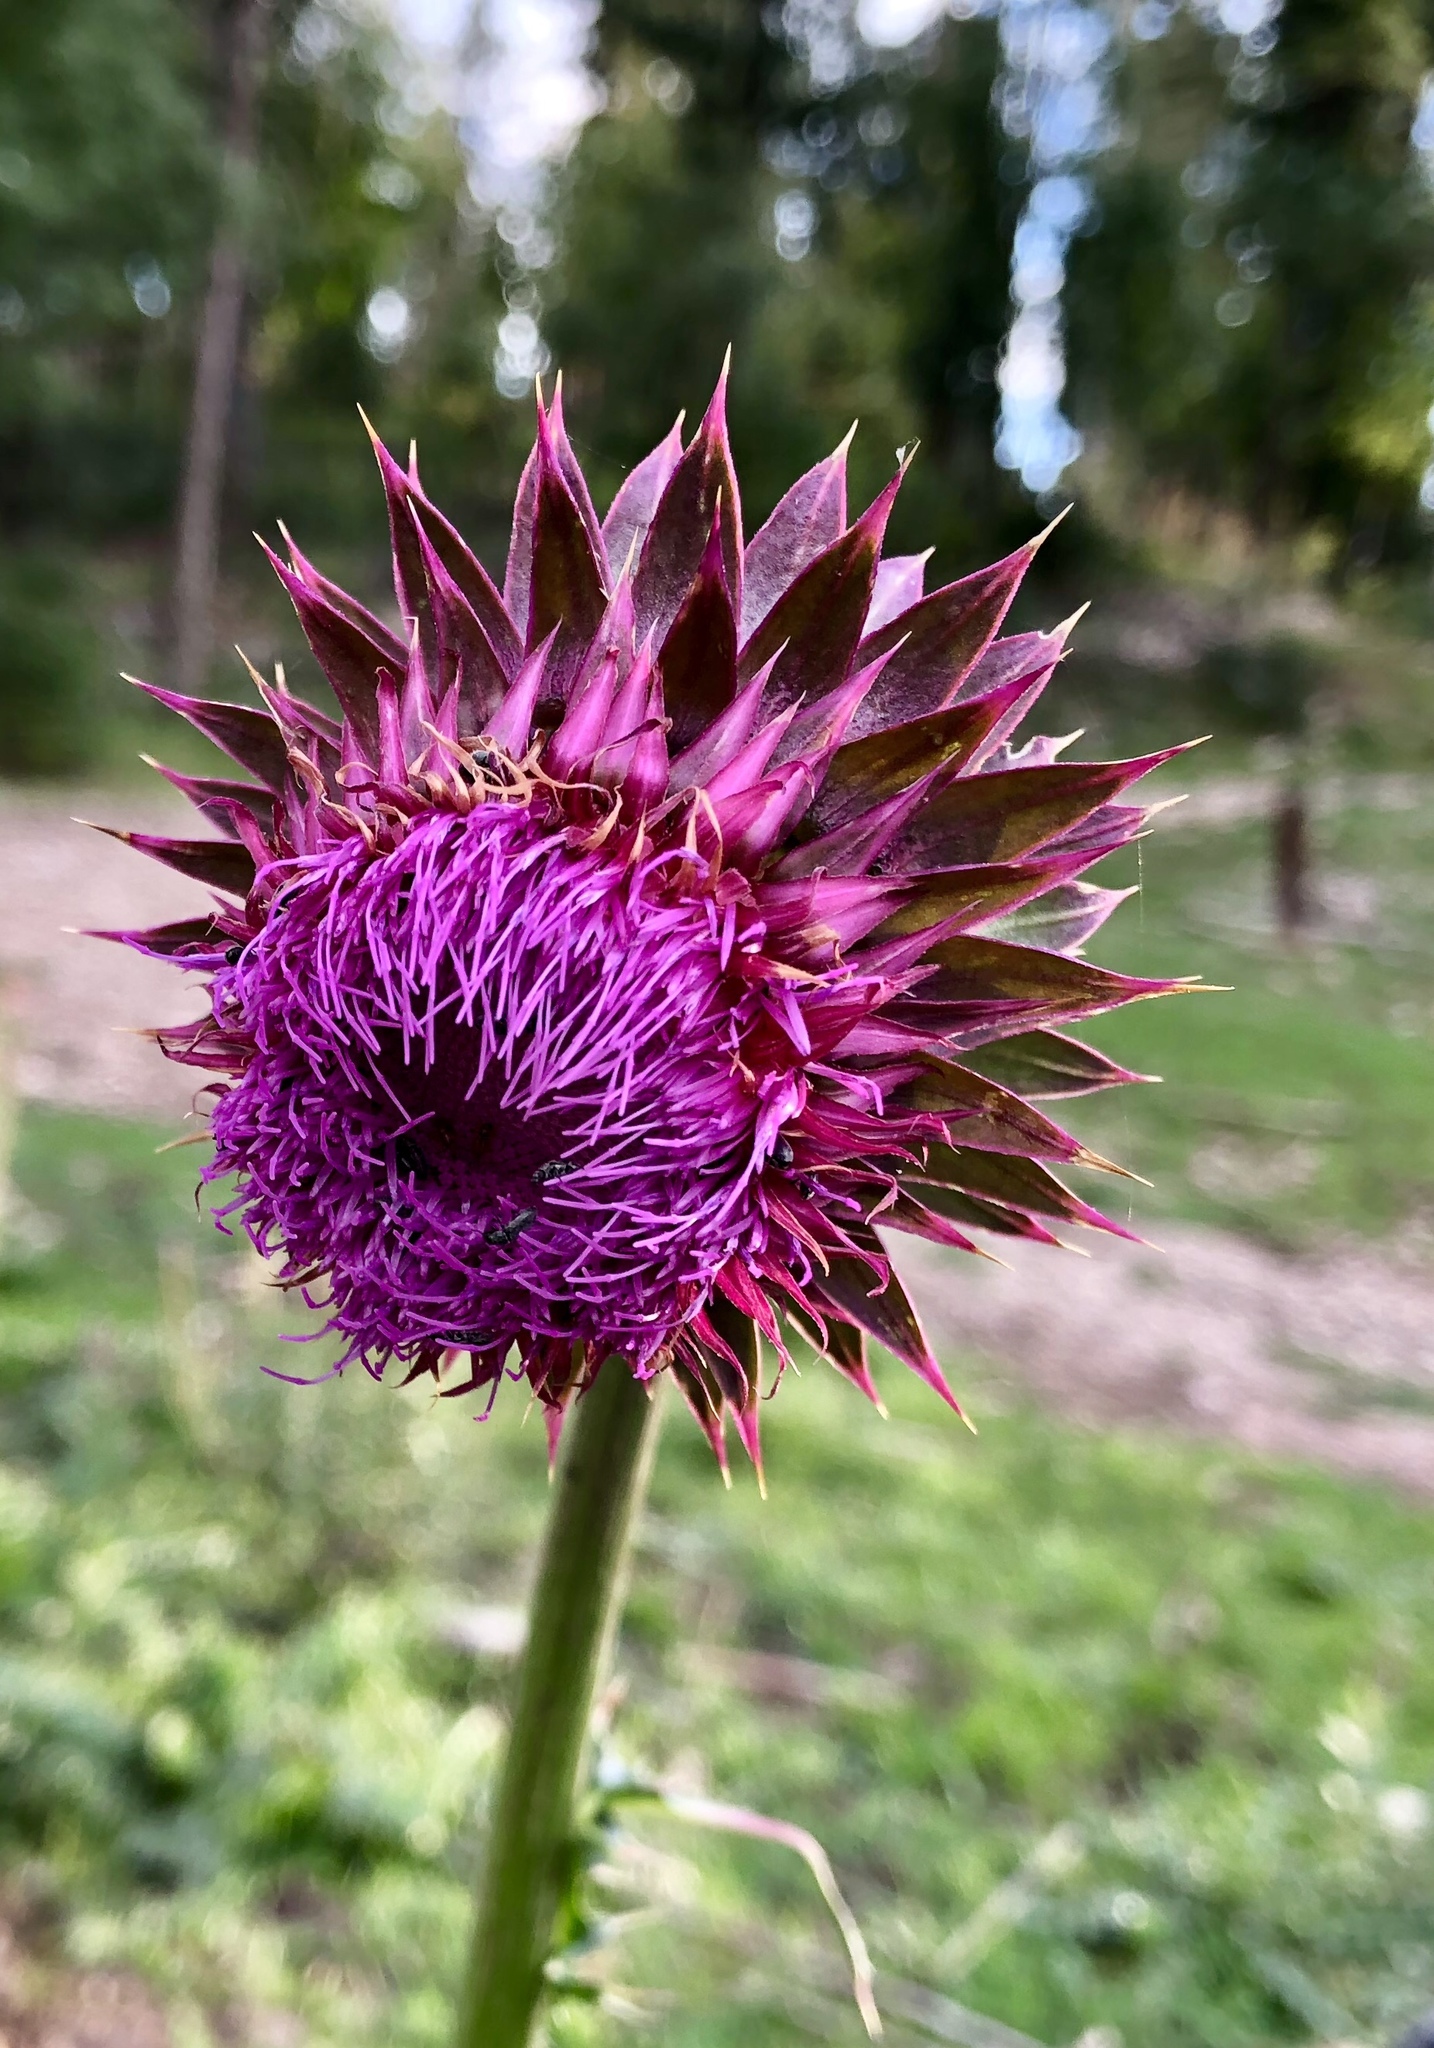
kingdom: Plantae
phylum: Tracheophyta
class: Magnoliopsida
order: Asterales
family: Asteraceae
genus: Carduus
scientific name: Carduus nutans
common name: Musk thistle
